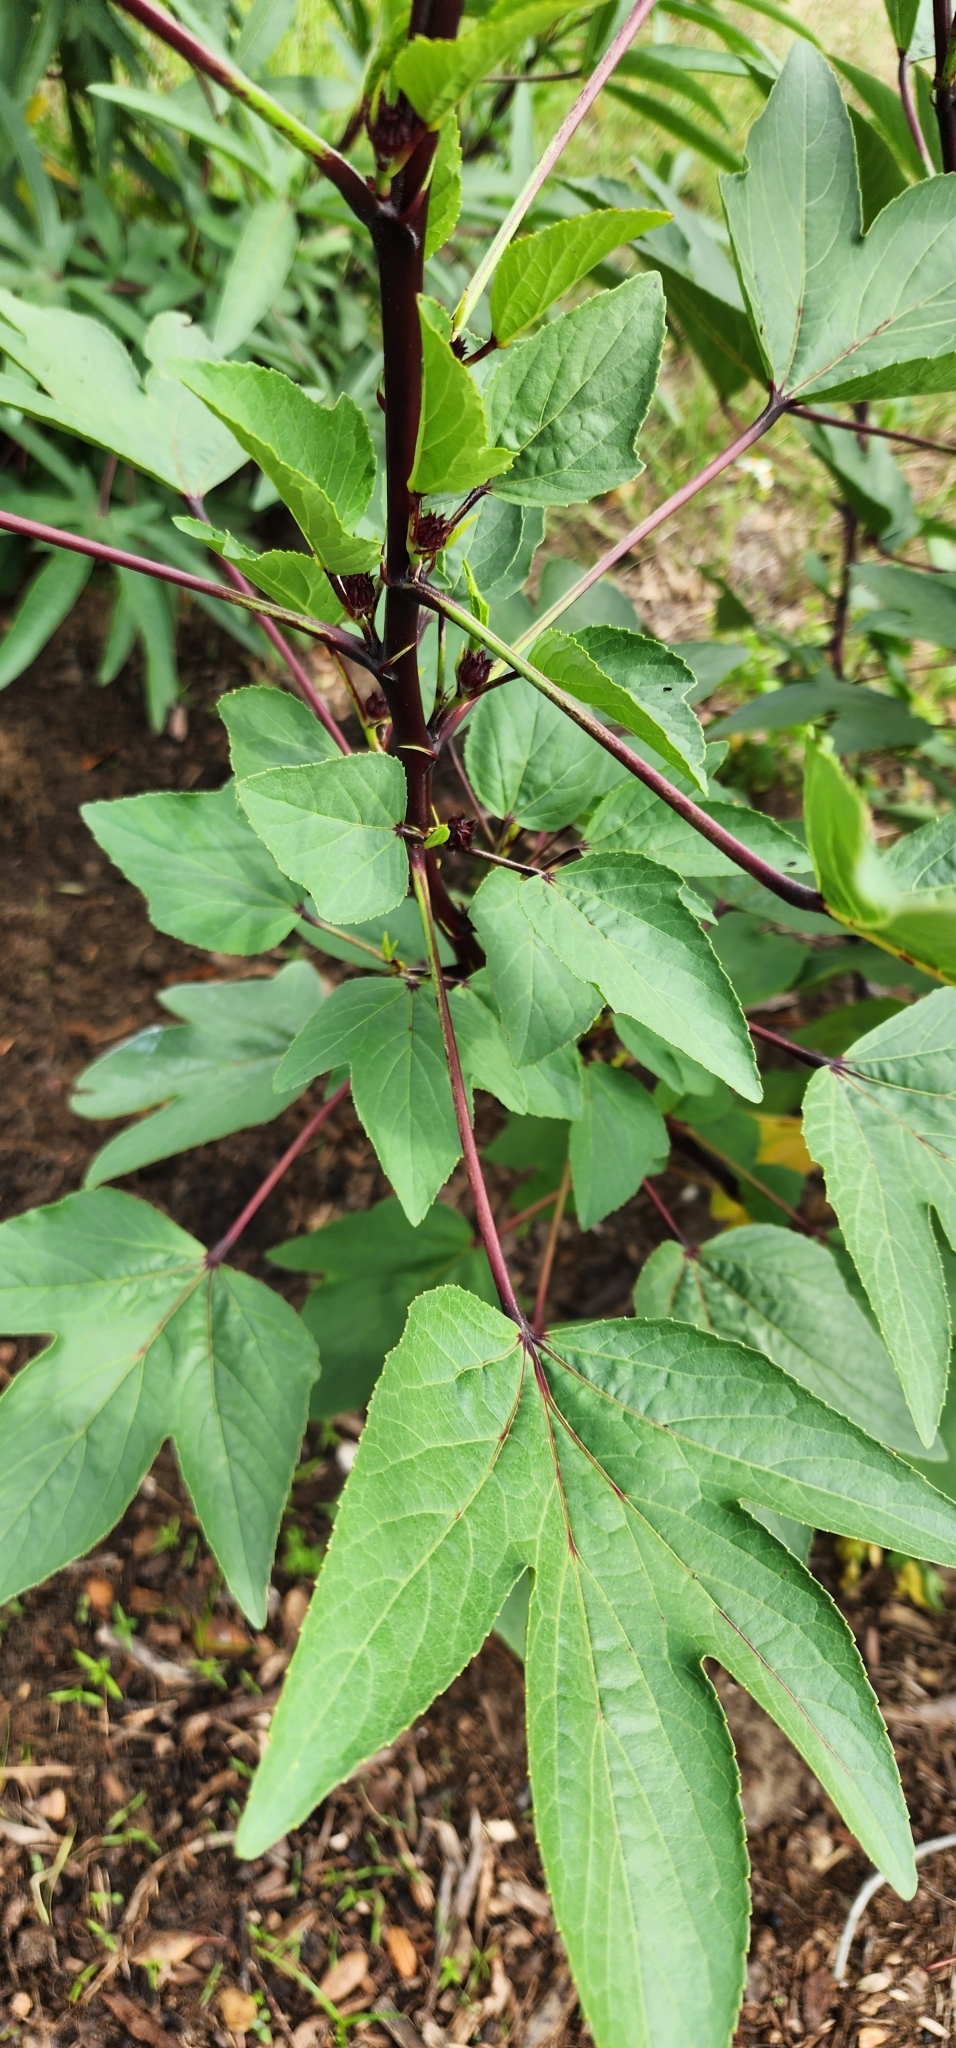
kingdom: Plantae
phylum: Tracheophyta
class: Magnoliopsida
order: Malvales
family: Malvaceae
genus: Hibiscus
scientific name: Hibiscus sabdariffa
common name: Roselle
